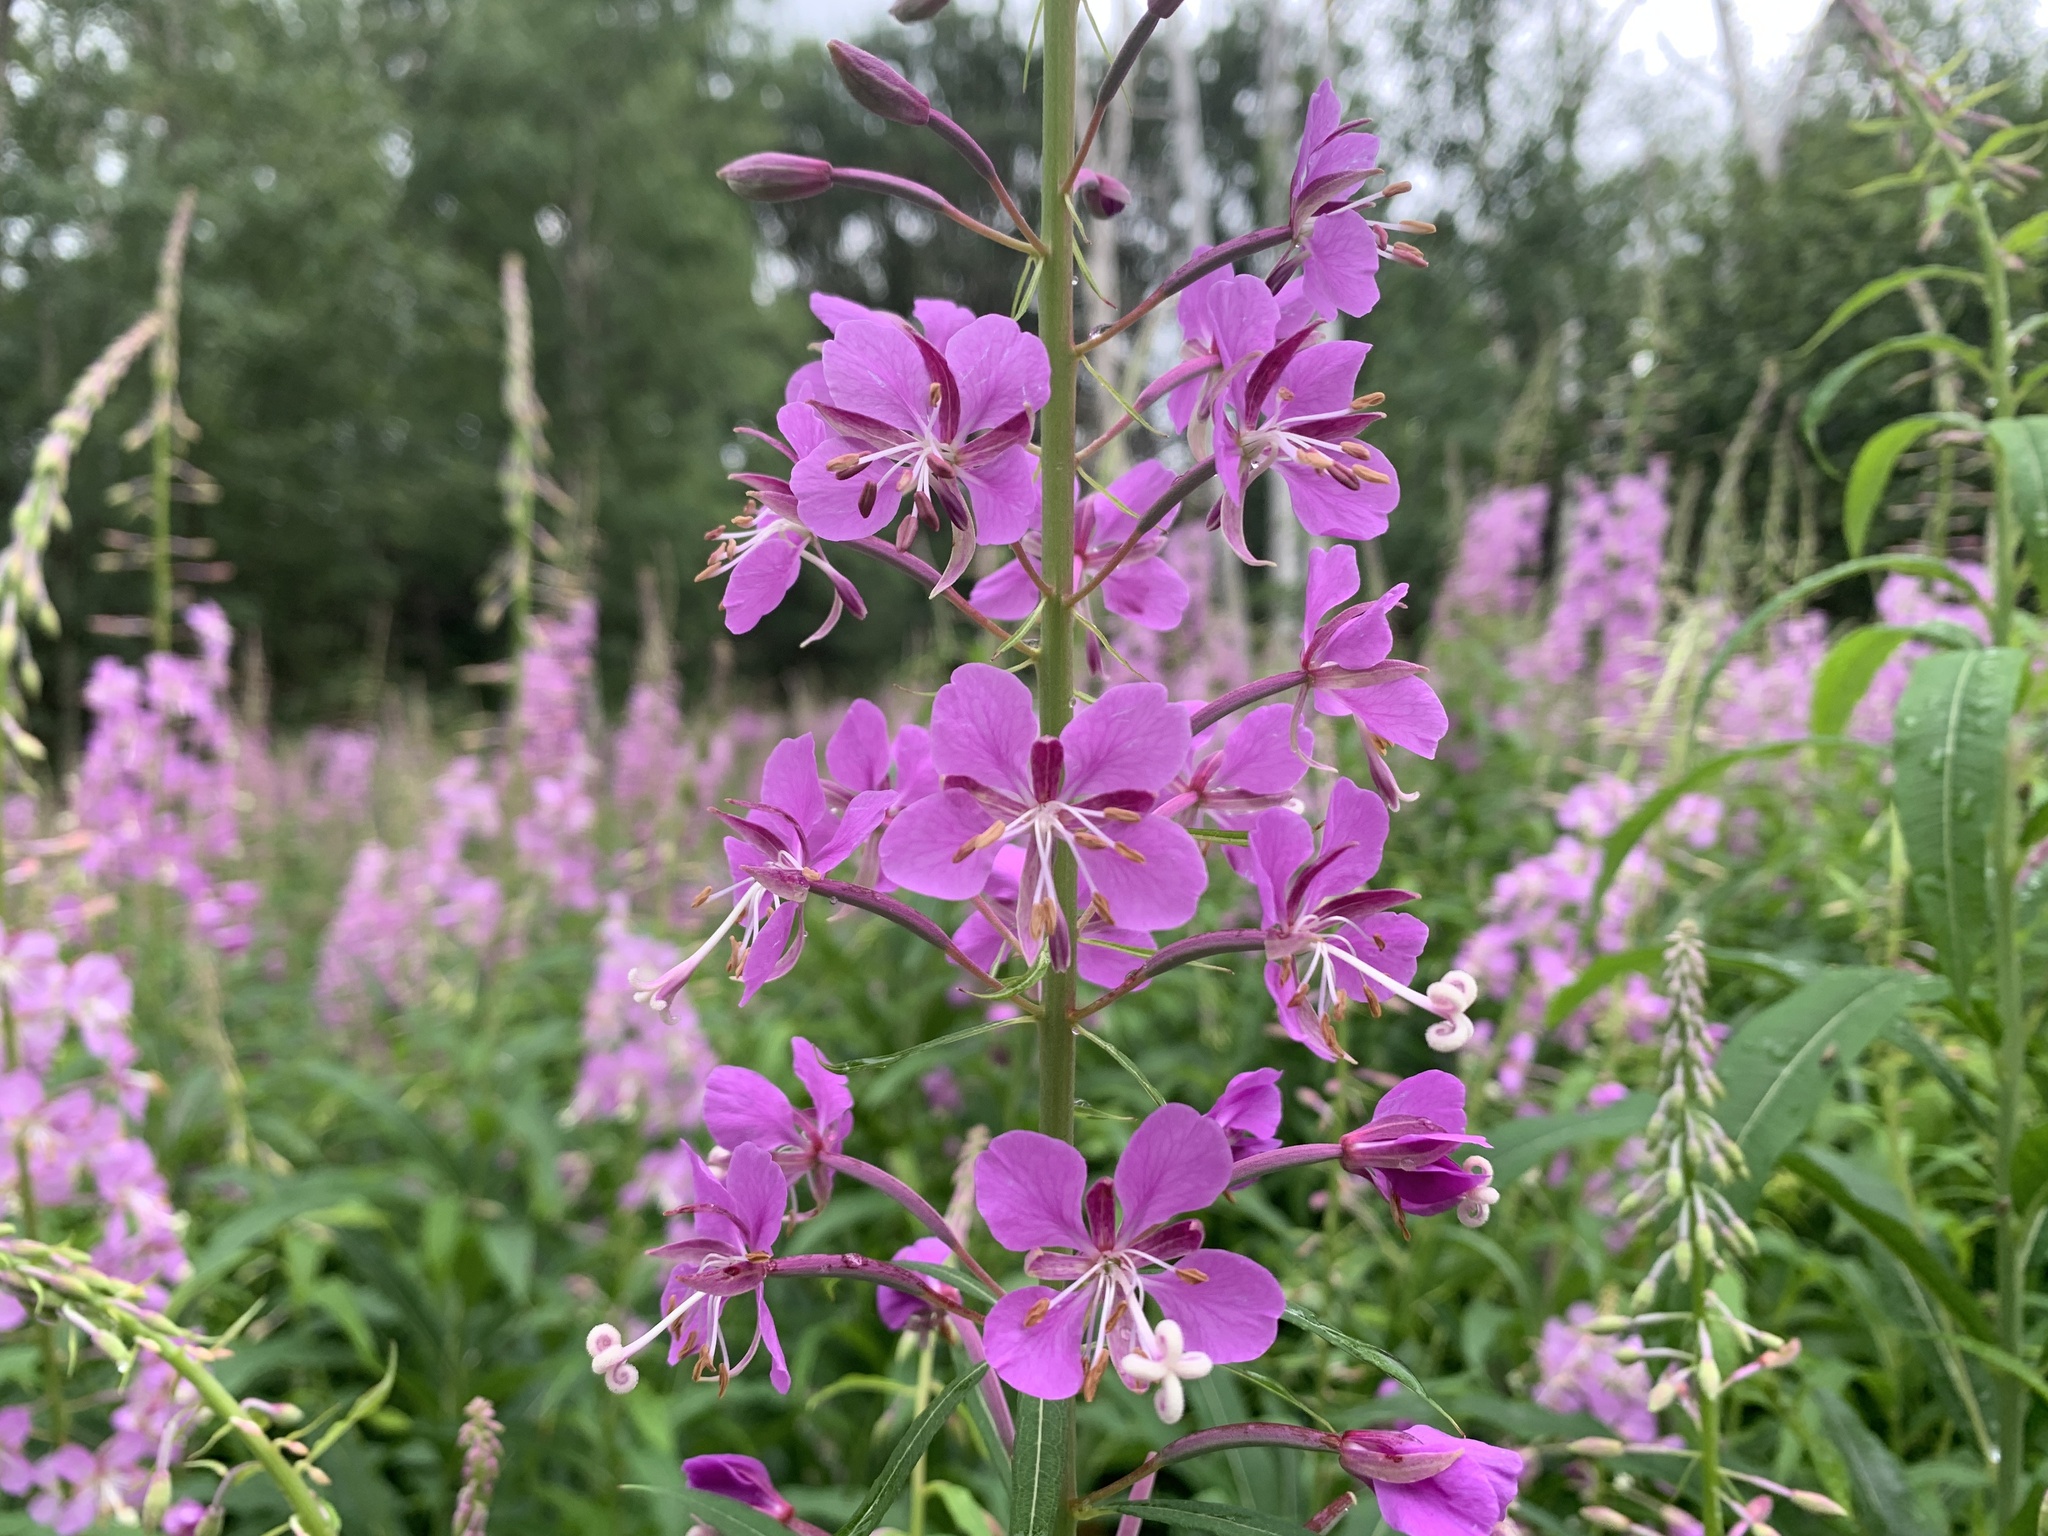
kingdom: Plantae
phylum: Tracheophyta
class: Magnoliopsida
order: Myrtales
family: Onagraceae
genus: Chamaenerion
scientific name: Chamaenerion angustifolium
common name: Fireweed
